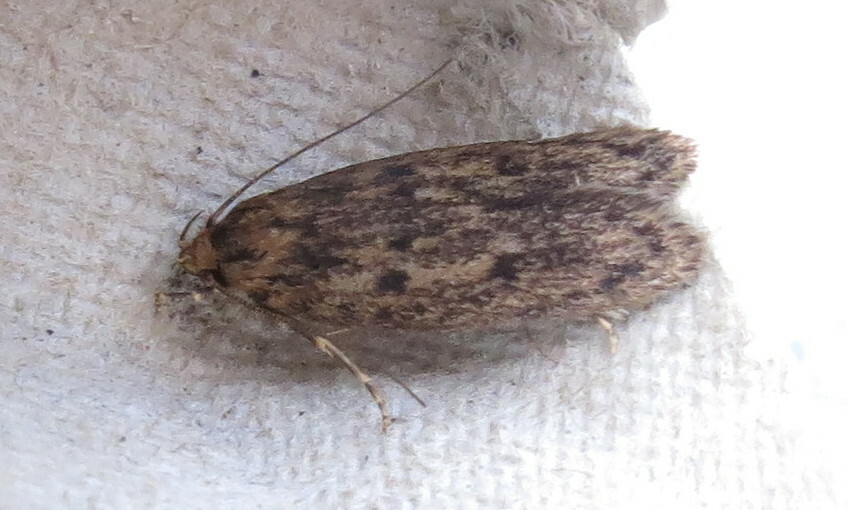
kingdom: Animalia
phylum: Arthropoda
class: Insecta
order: Lepidoptera
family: Oecophoridae
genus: Hofmannophila
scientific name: Hofmannophila pseudospretella
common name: Brown house moth
